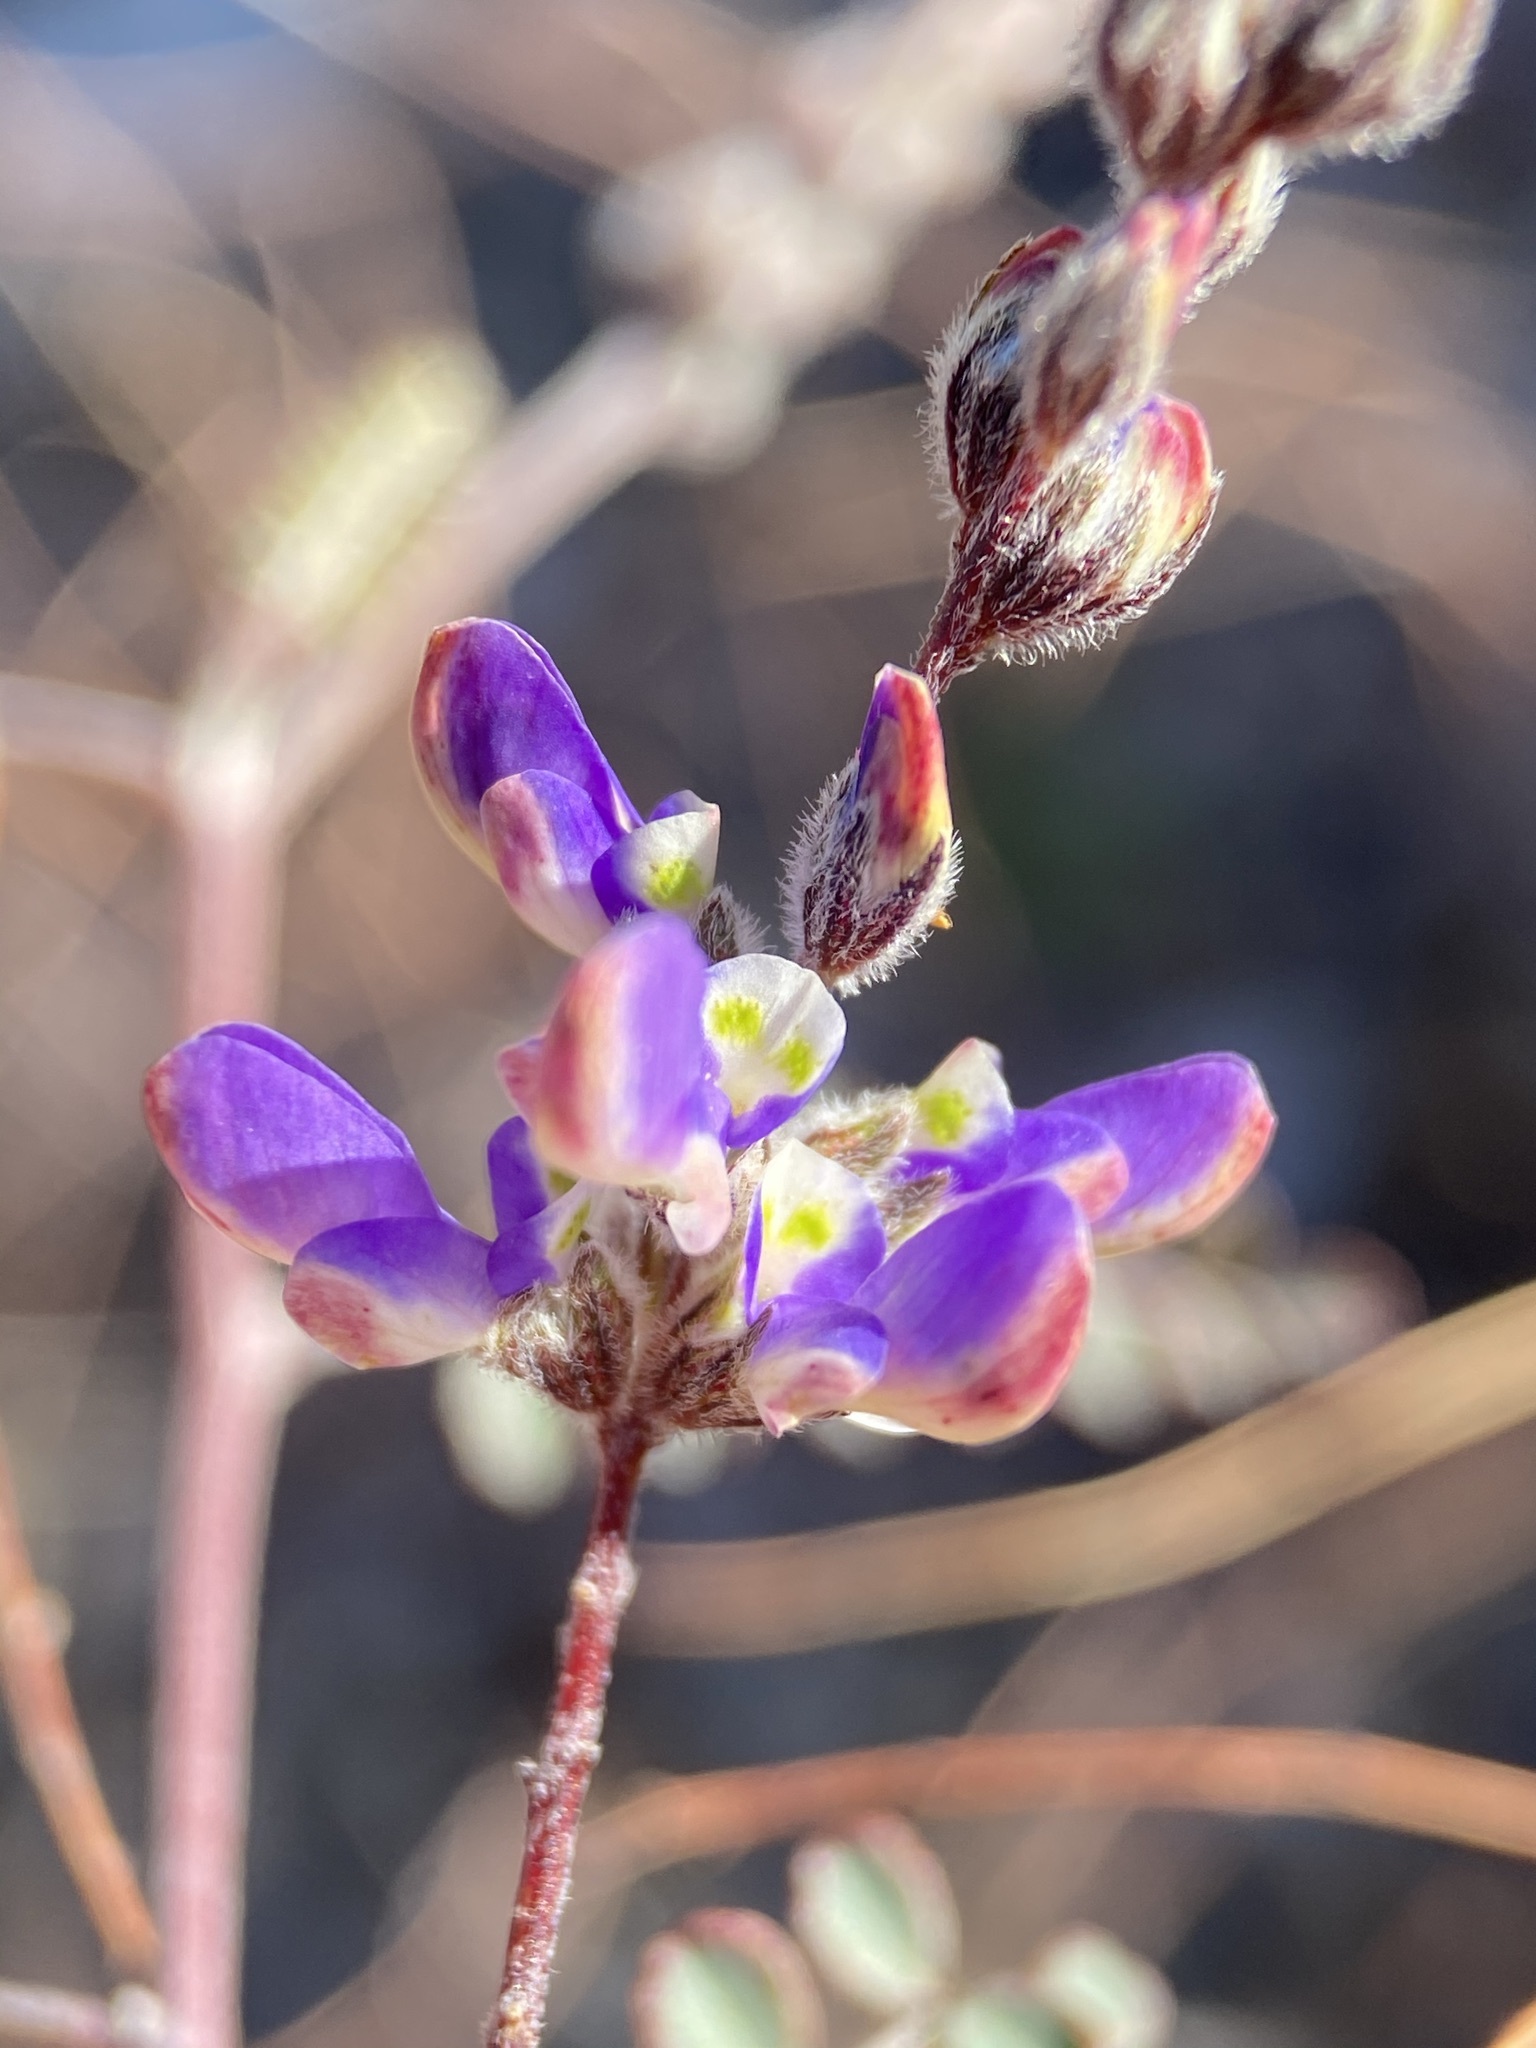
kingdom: Plantae
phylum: Tracheophyta
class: Magnoliopsida
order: Fabales
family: Fabaceae
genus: Marina
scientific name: Marina parryi
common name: Parry's marina
